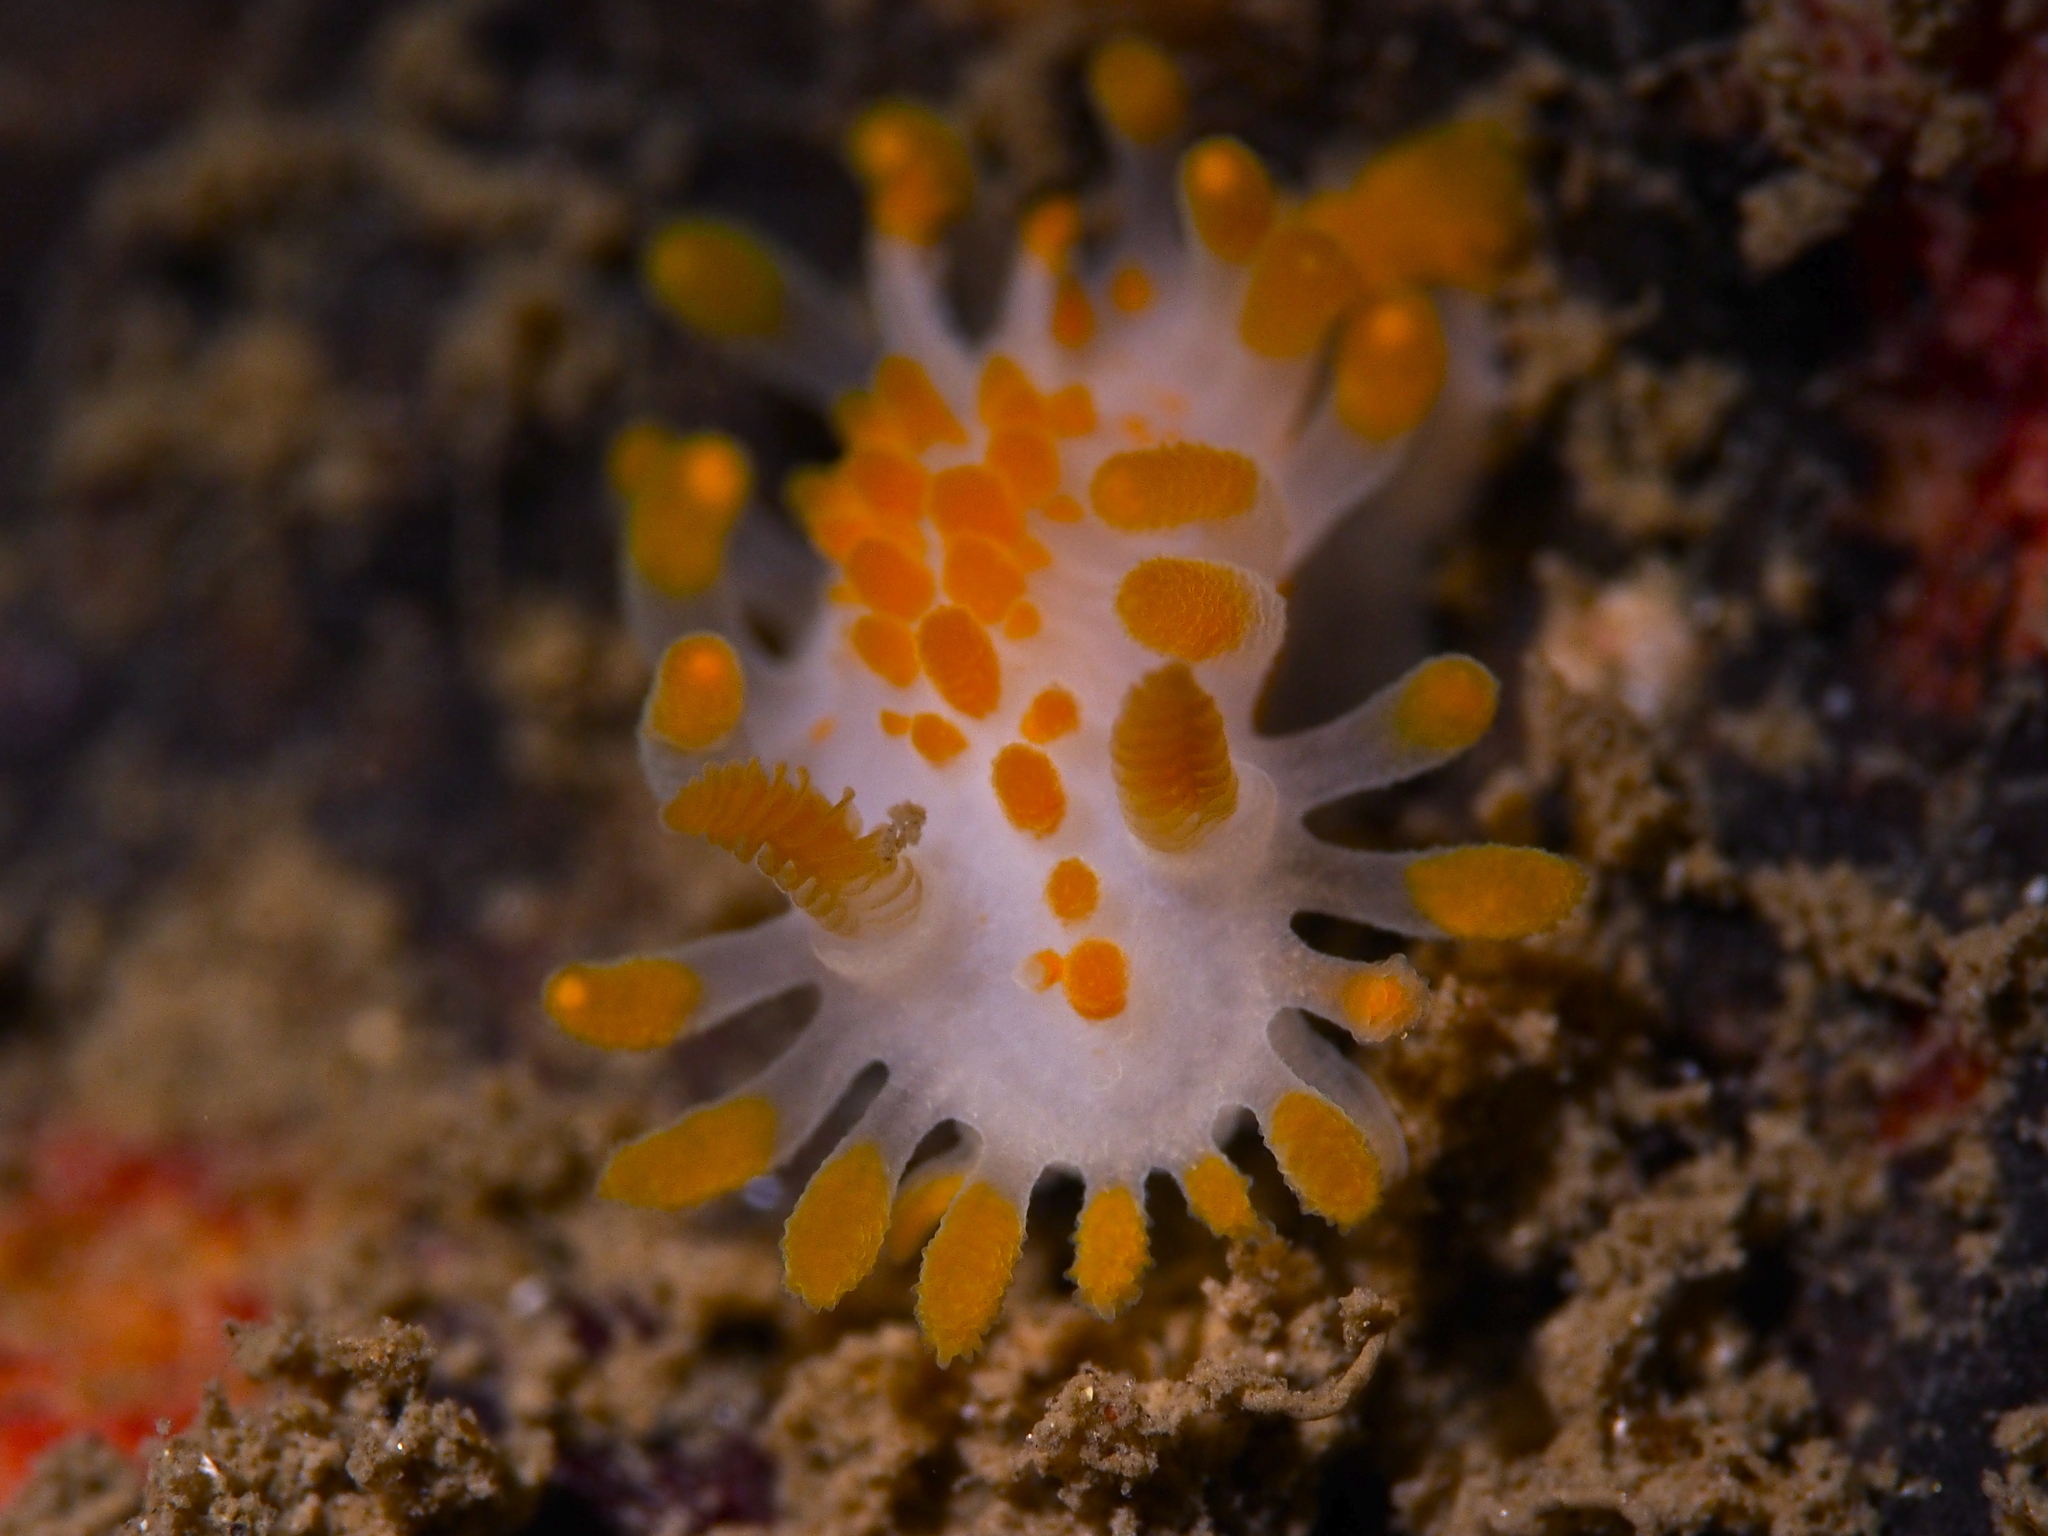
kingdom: Animalia
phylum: Mollusca
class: Gastropoda
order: Nudibranchia
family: Polyceridae
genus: Limacia
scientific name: Limacia clavigera
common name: Orange-clubbed sea slug
